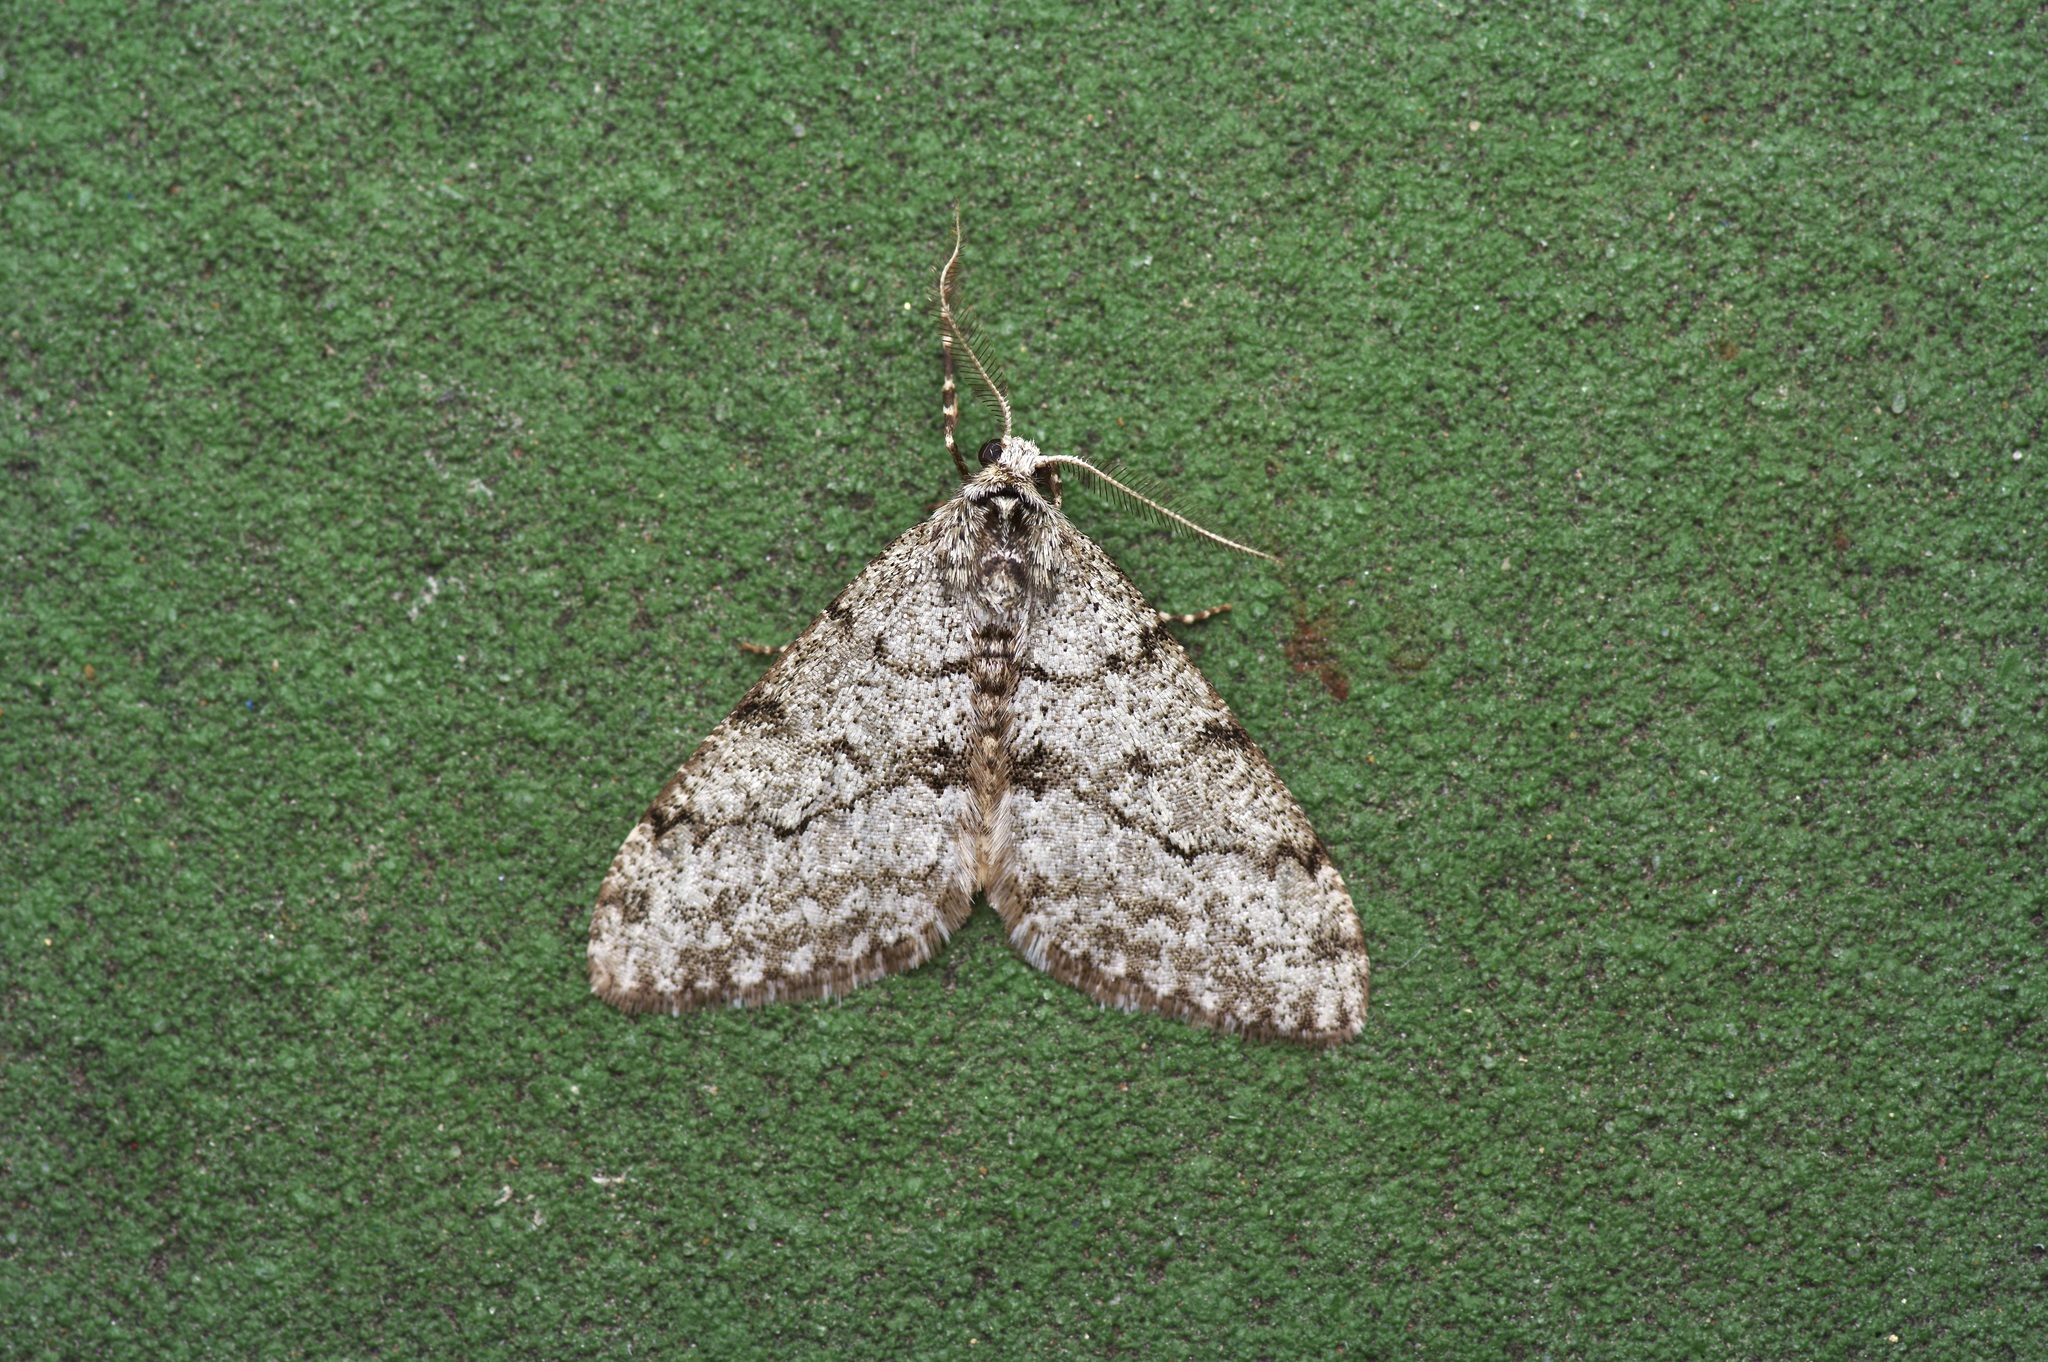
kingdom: Animalia
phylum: Arthropoda
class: Insecta
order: Lepidoptera
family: Geometridae
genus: Phigalia
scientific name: Phigalia strigataria
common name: Small phigalia
